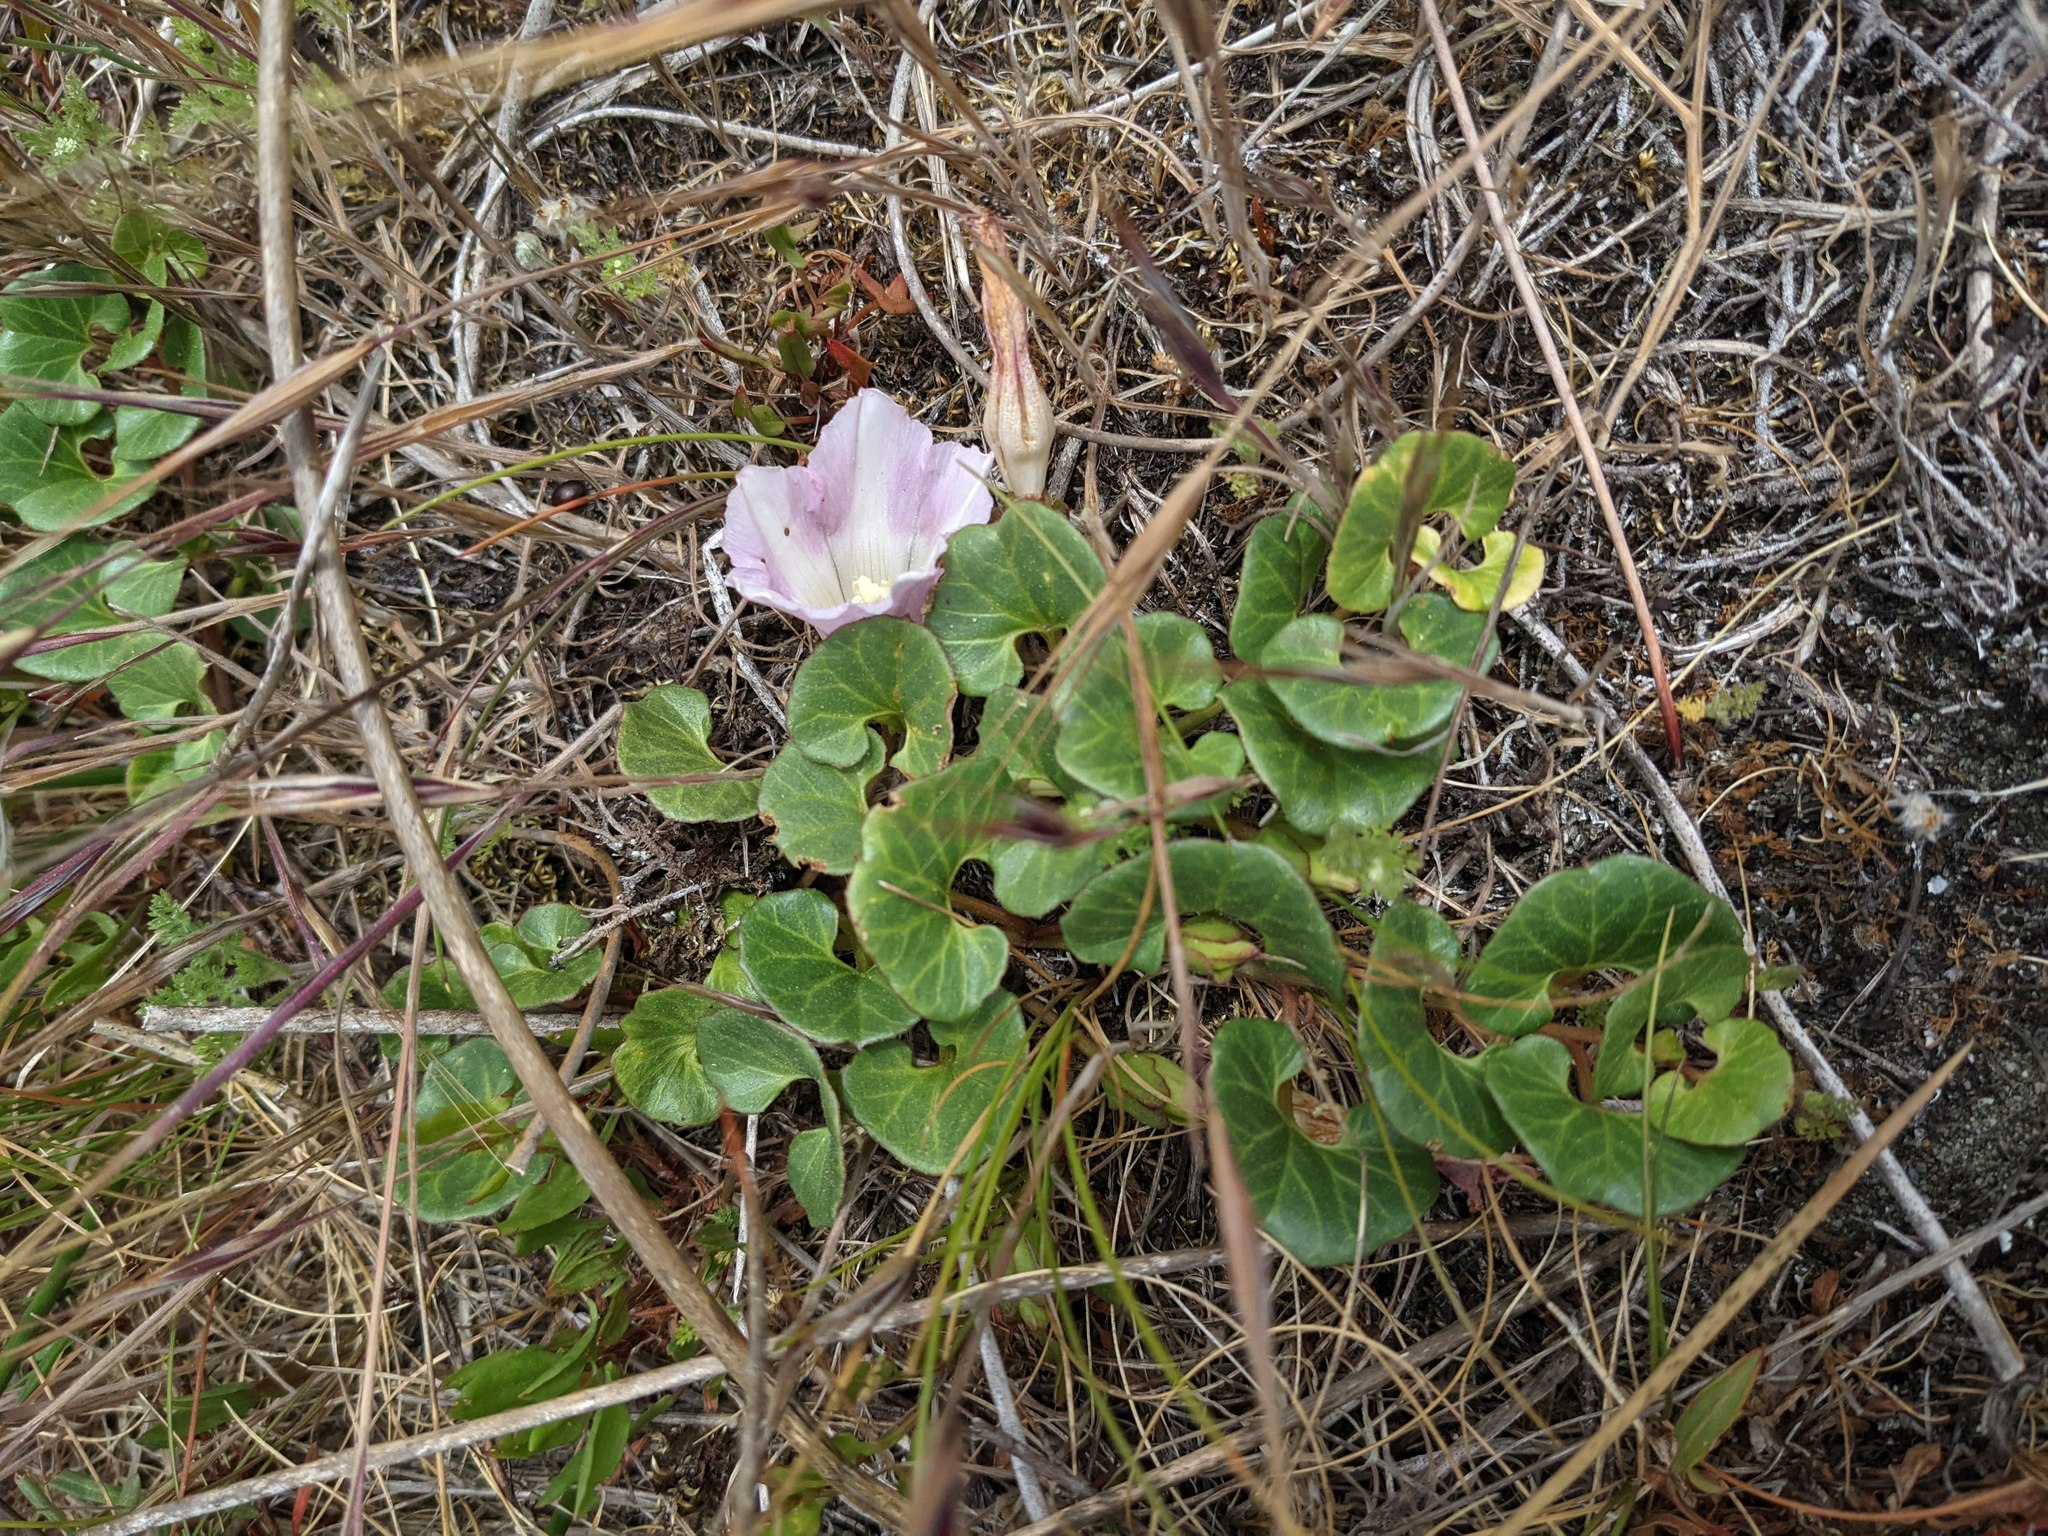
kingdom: Plantae
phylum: Tracheophyta
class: Magnoliopsida
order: Solanales
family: Convolvulaceae
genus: Calystegia
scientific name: Calystegia soldanella
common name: Sea bindweed
